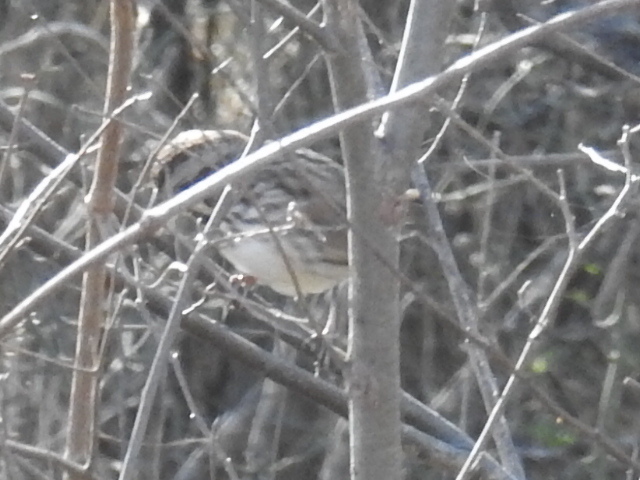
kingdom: Animalia
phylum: Chordata
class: Aves
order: Passeriformes
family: Passerellidae
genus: Melospiza
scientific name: Melospiza melodia
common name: Song sparrow
